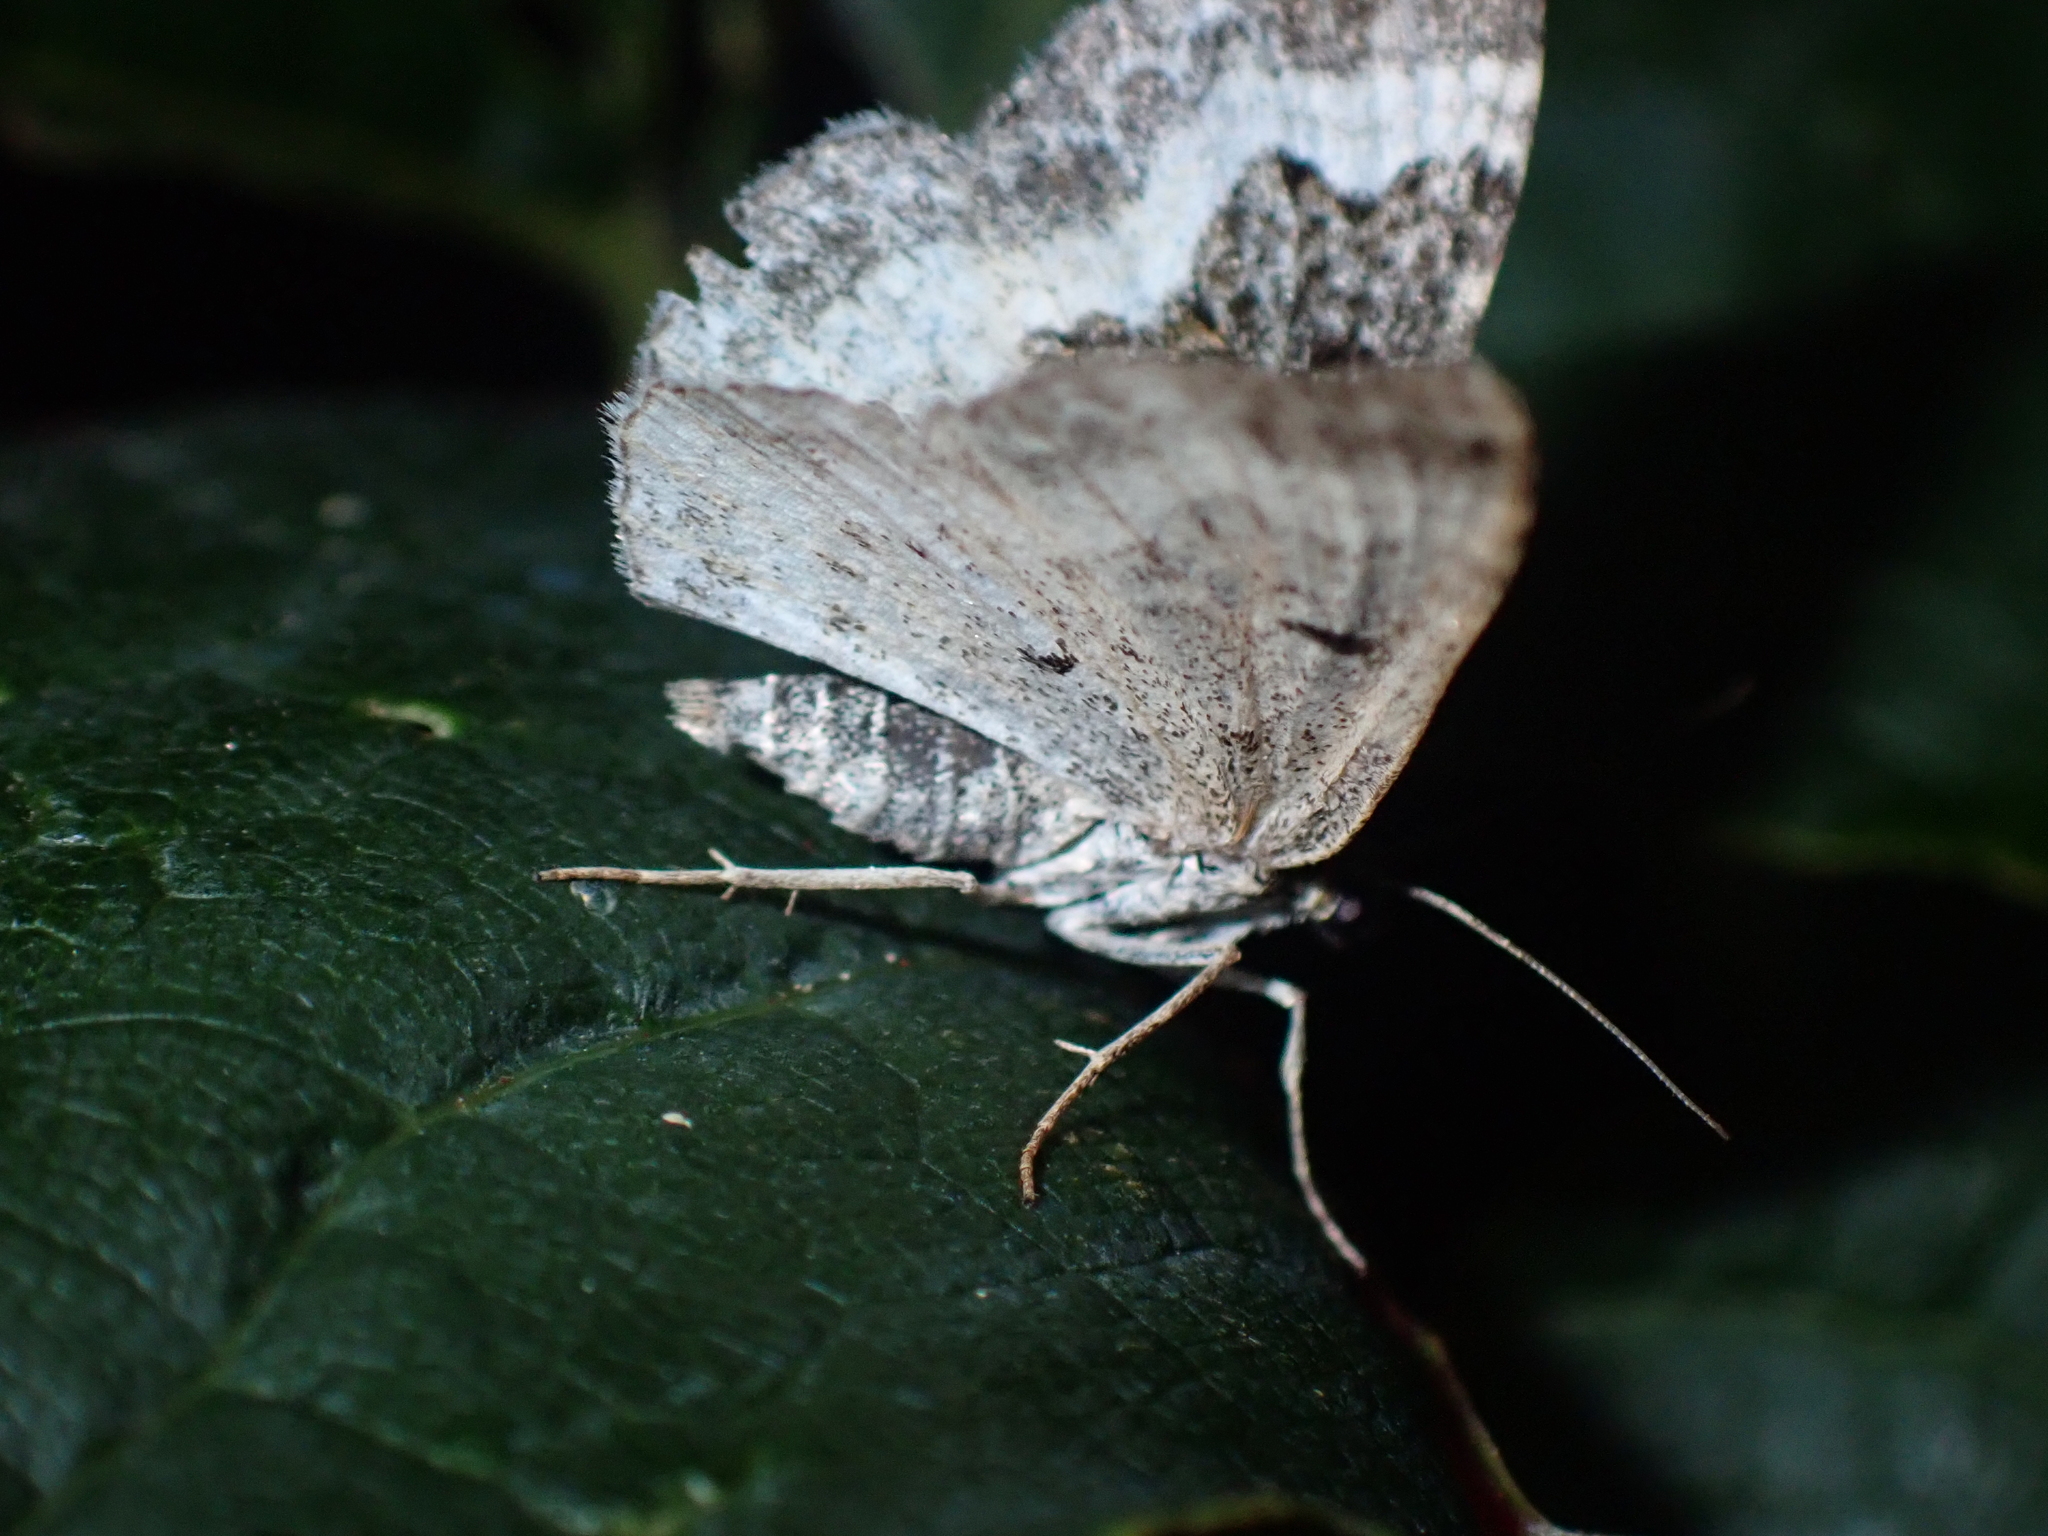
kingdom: Animalia
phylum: Arthropoda
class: Insecta
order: Lepidoptera
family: Geometridae
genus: Epirrhoe
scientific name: Epirrhoe alternata
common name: Common carpet
